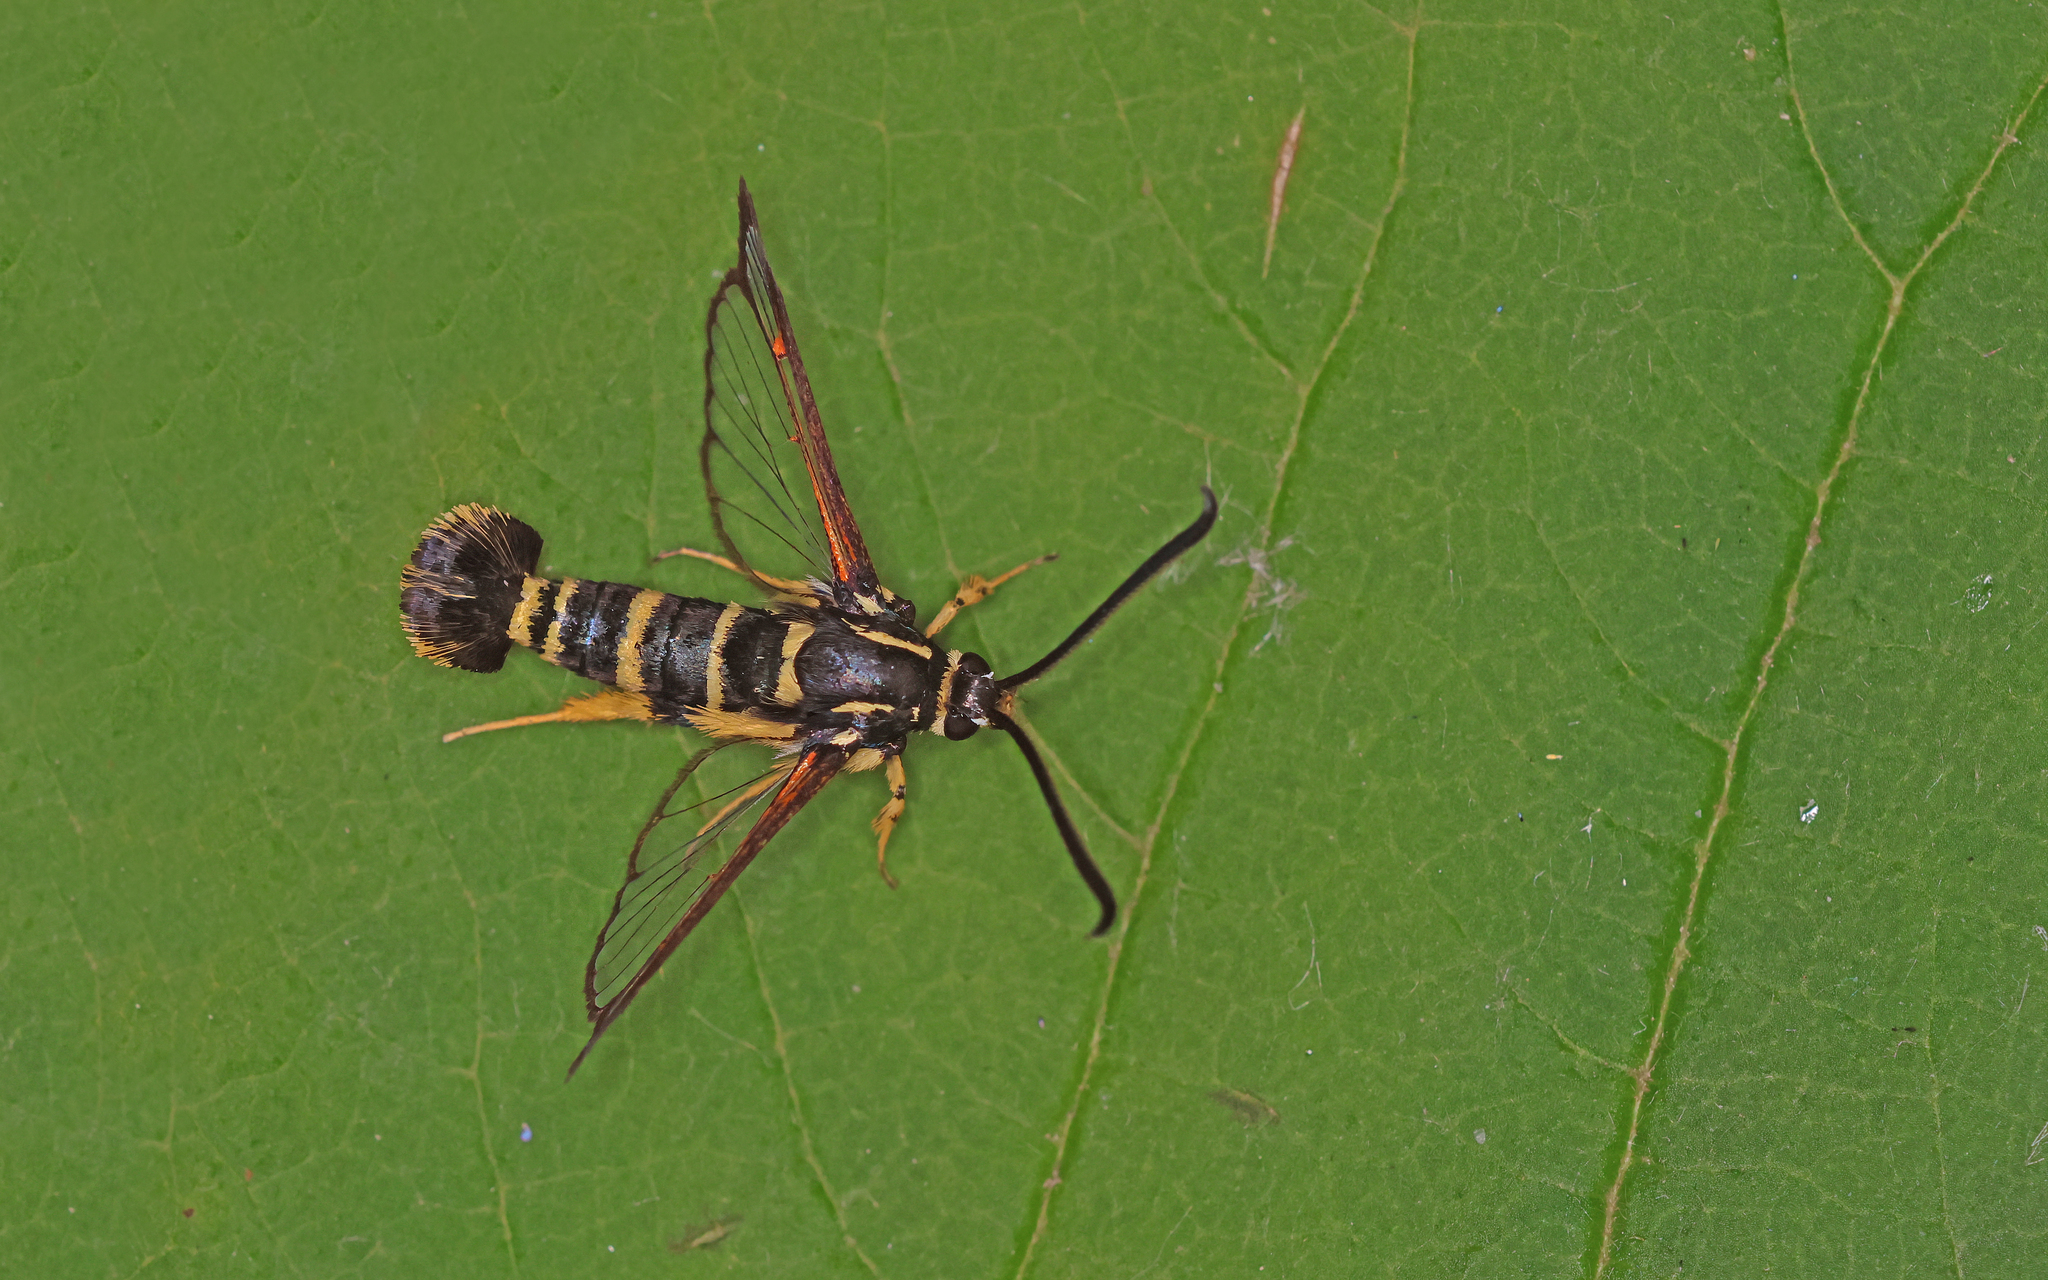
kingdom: Animalia
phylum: Arthropoda
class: Insecta
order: Lepidoptera
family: Sesiidae
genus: Synanthedon
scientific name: Synanthedon vespiformis
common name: Yellow-legged clearwing
